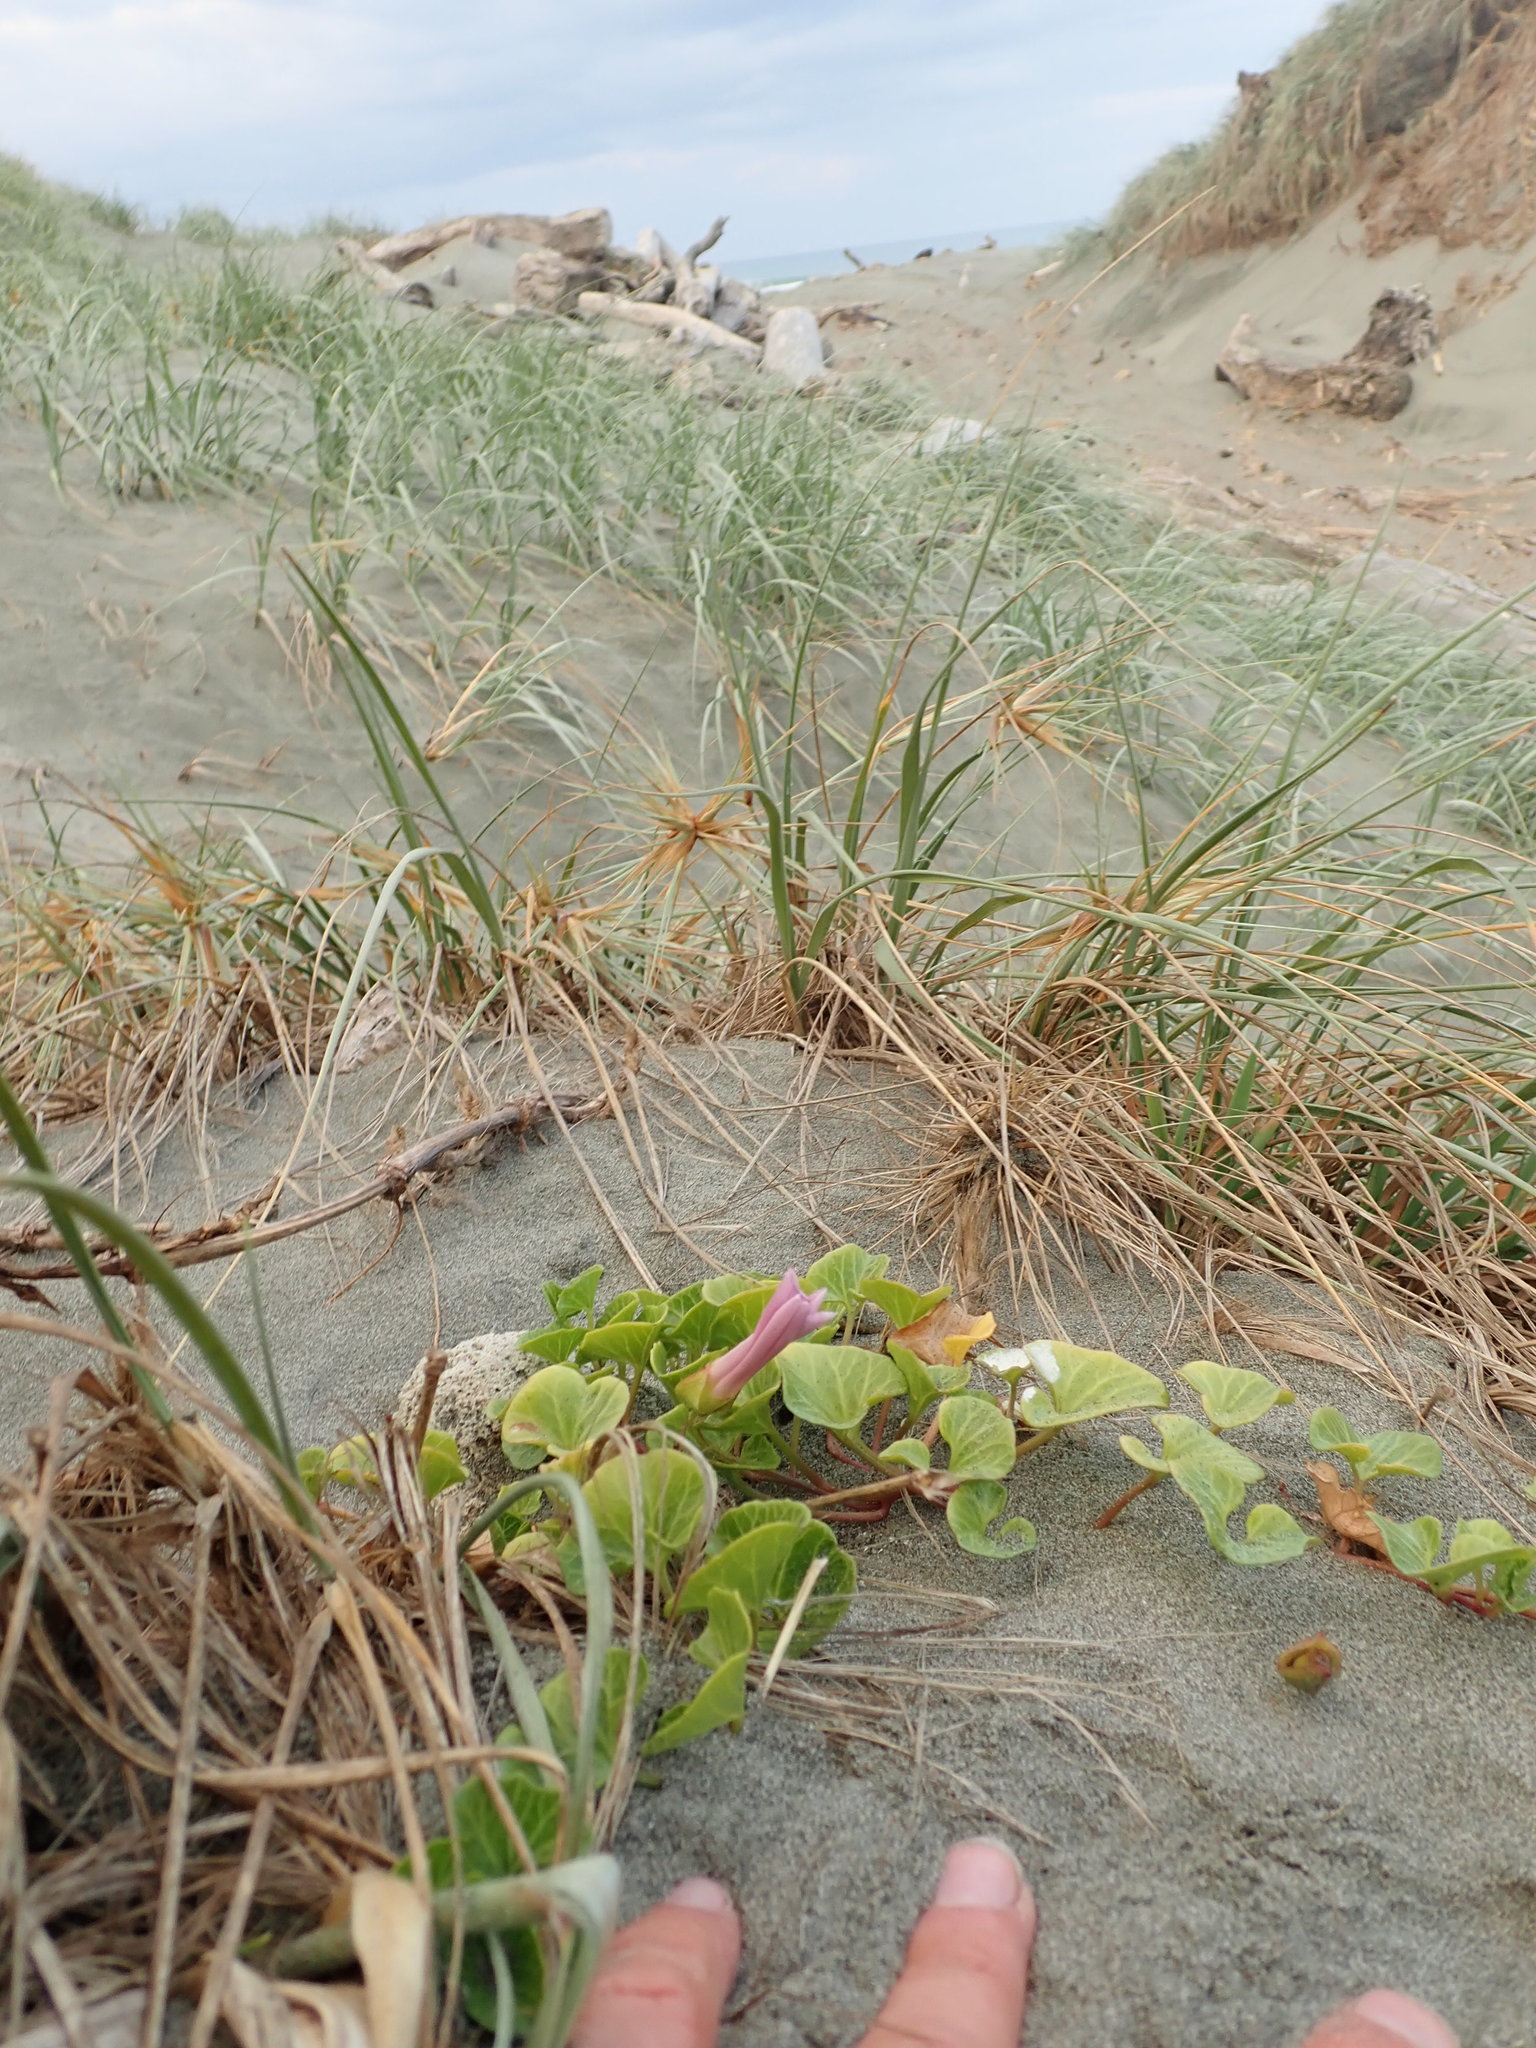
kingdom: Plantae
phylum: Tracheophyta
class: Magnoliopsida
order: Solanales
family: Convolvulaceae
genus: Calystegia
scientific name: Calystegia soldanella
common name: Sea bindweed
